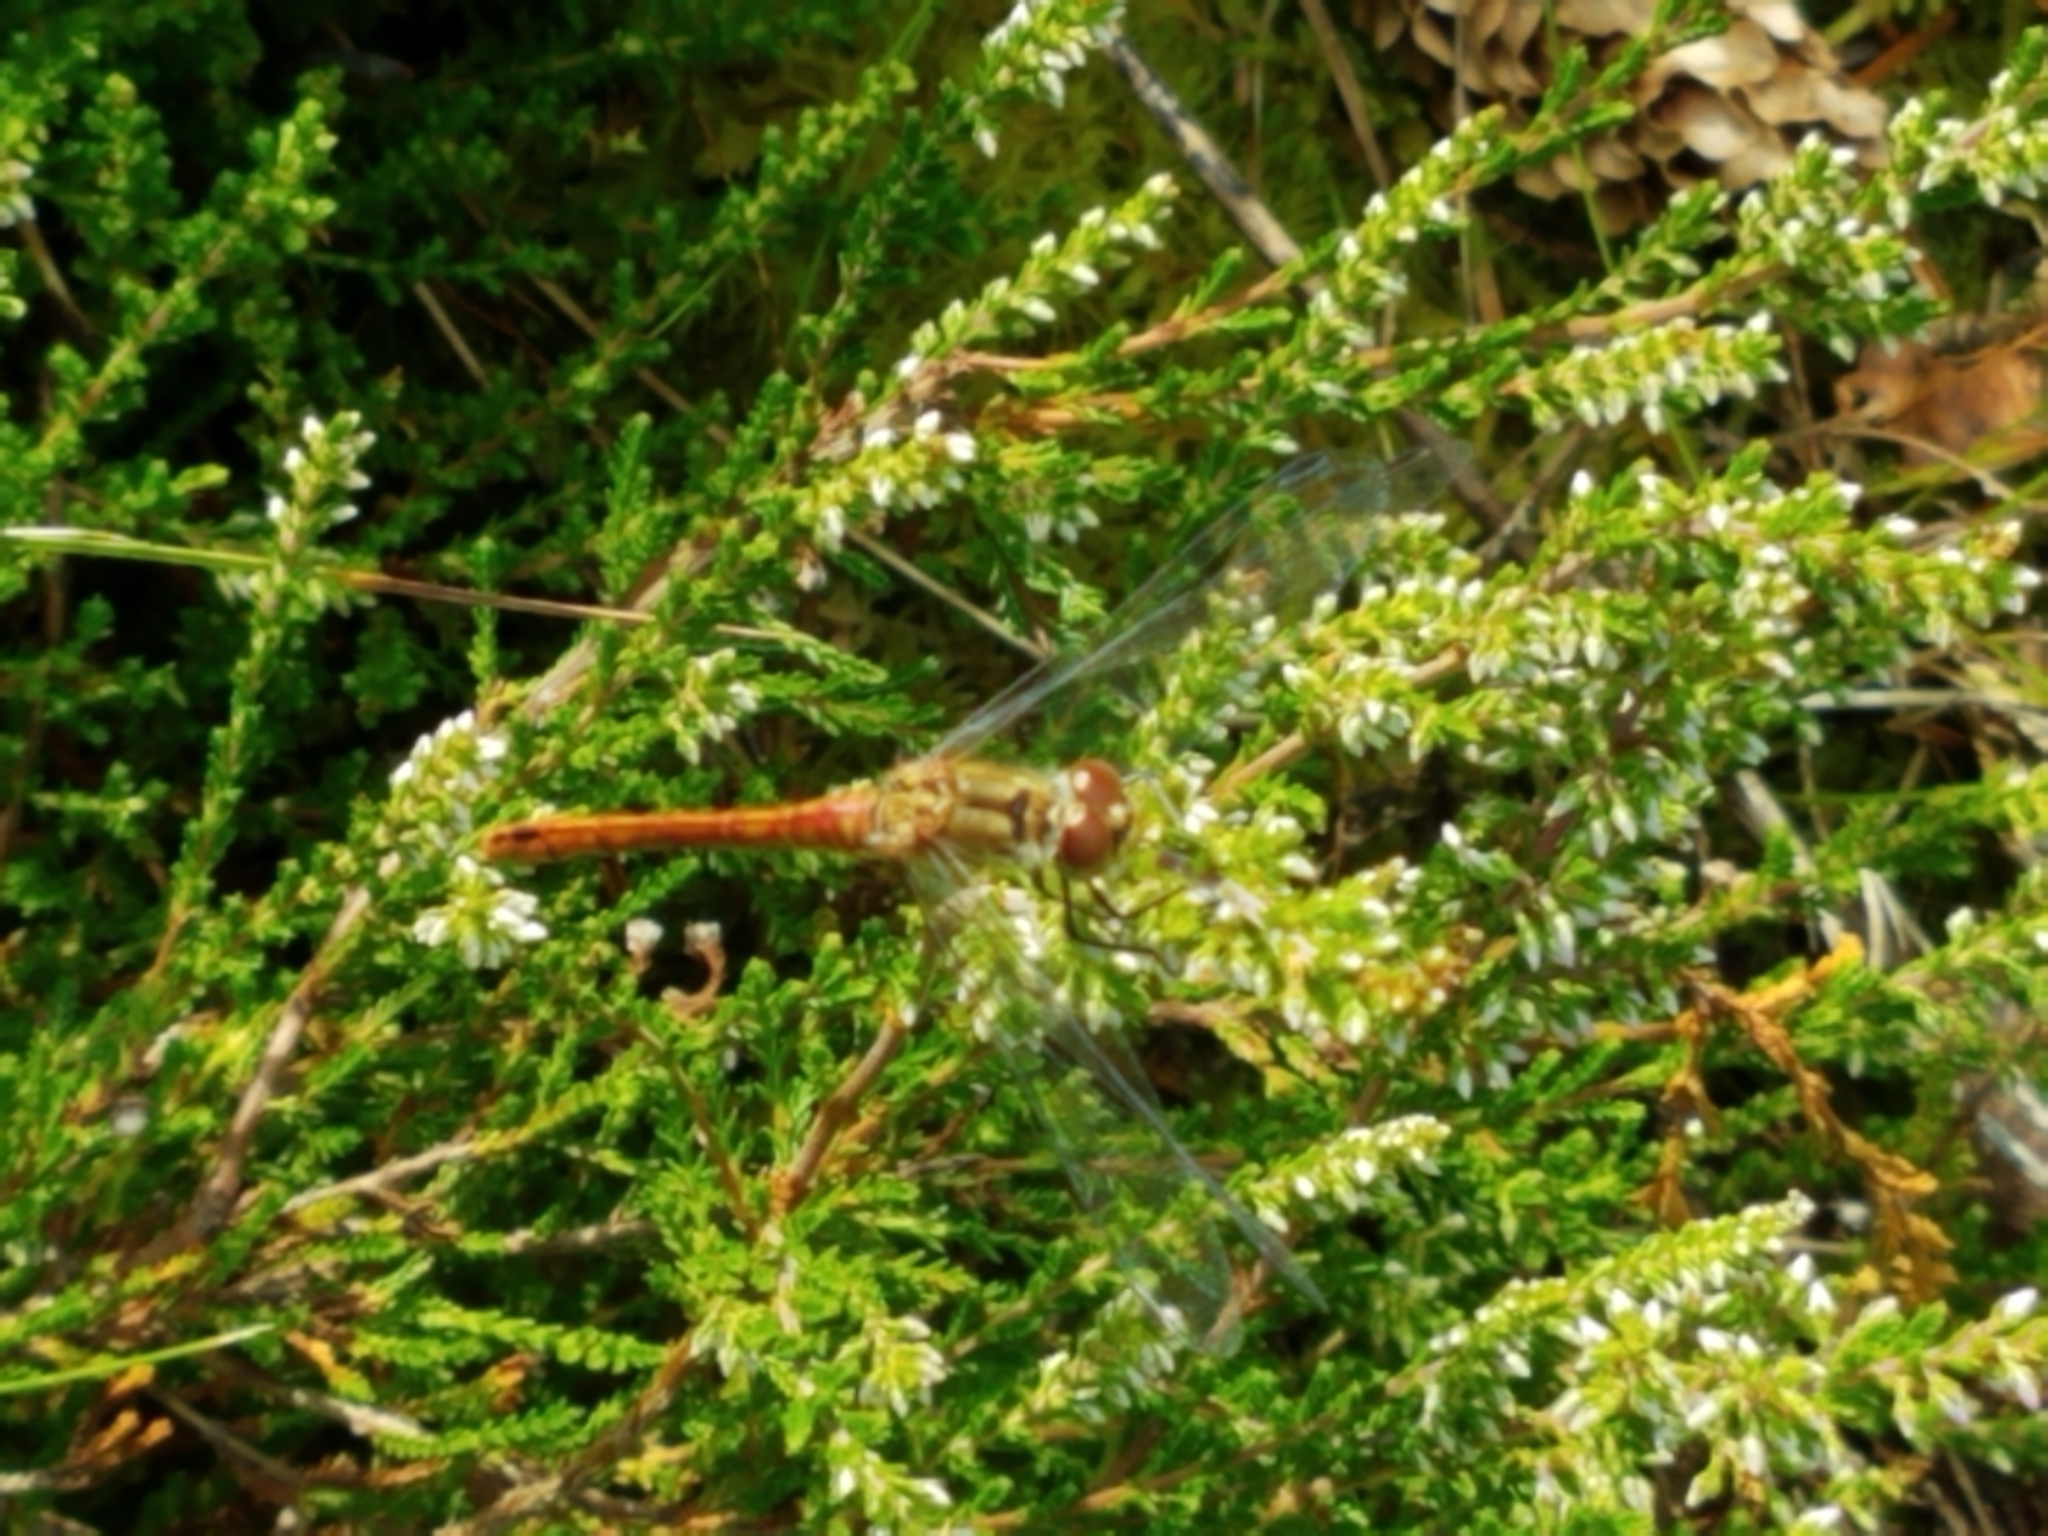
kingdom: Animalia
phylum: Arthropoda
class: Insecta
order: Odonata
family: Libellulidae
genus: Sympetrum
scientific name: Sympetrum sanguineum
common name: Ruddy darter
